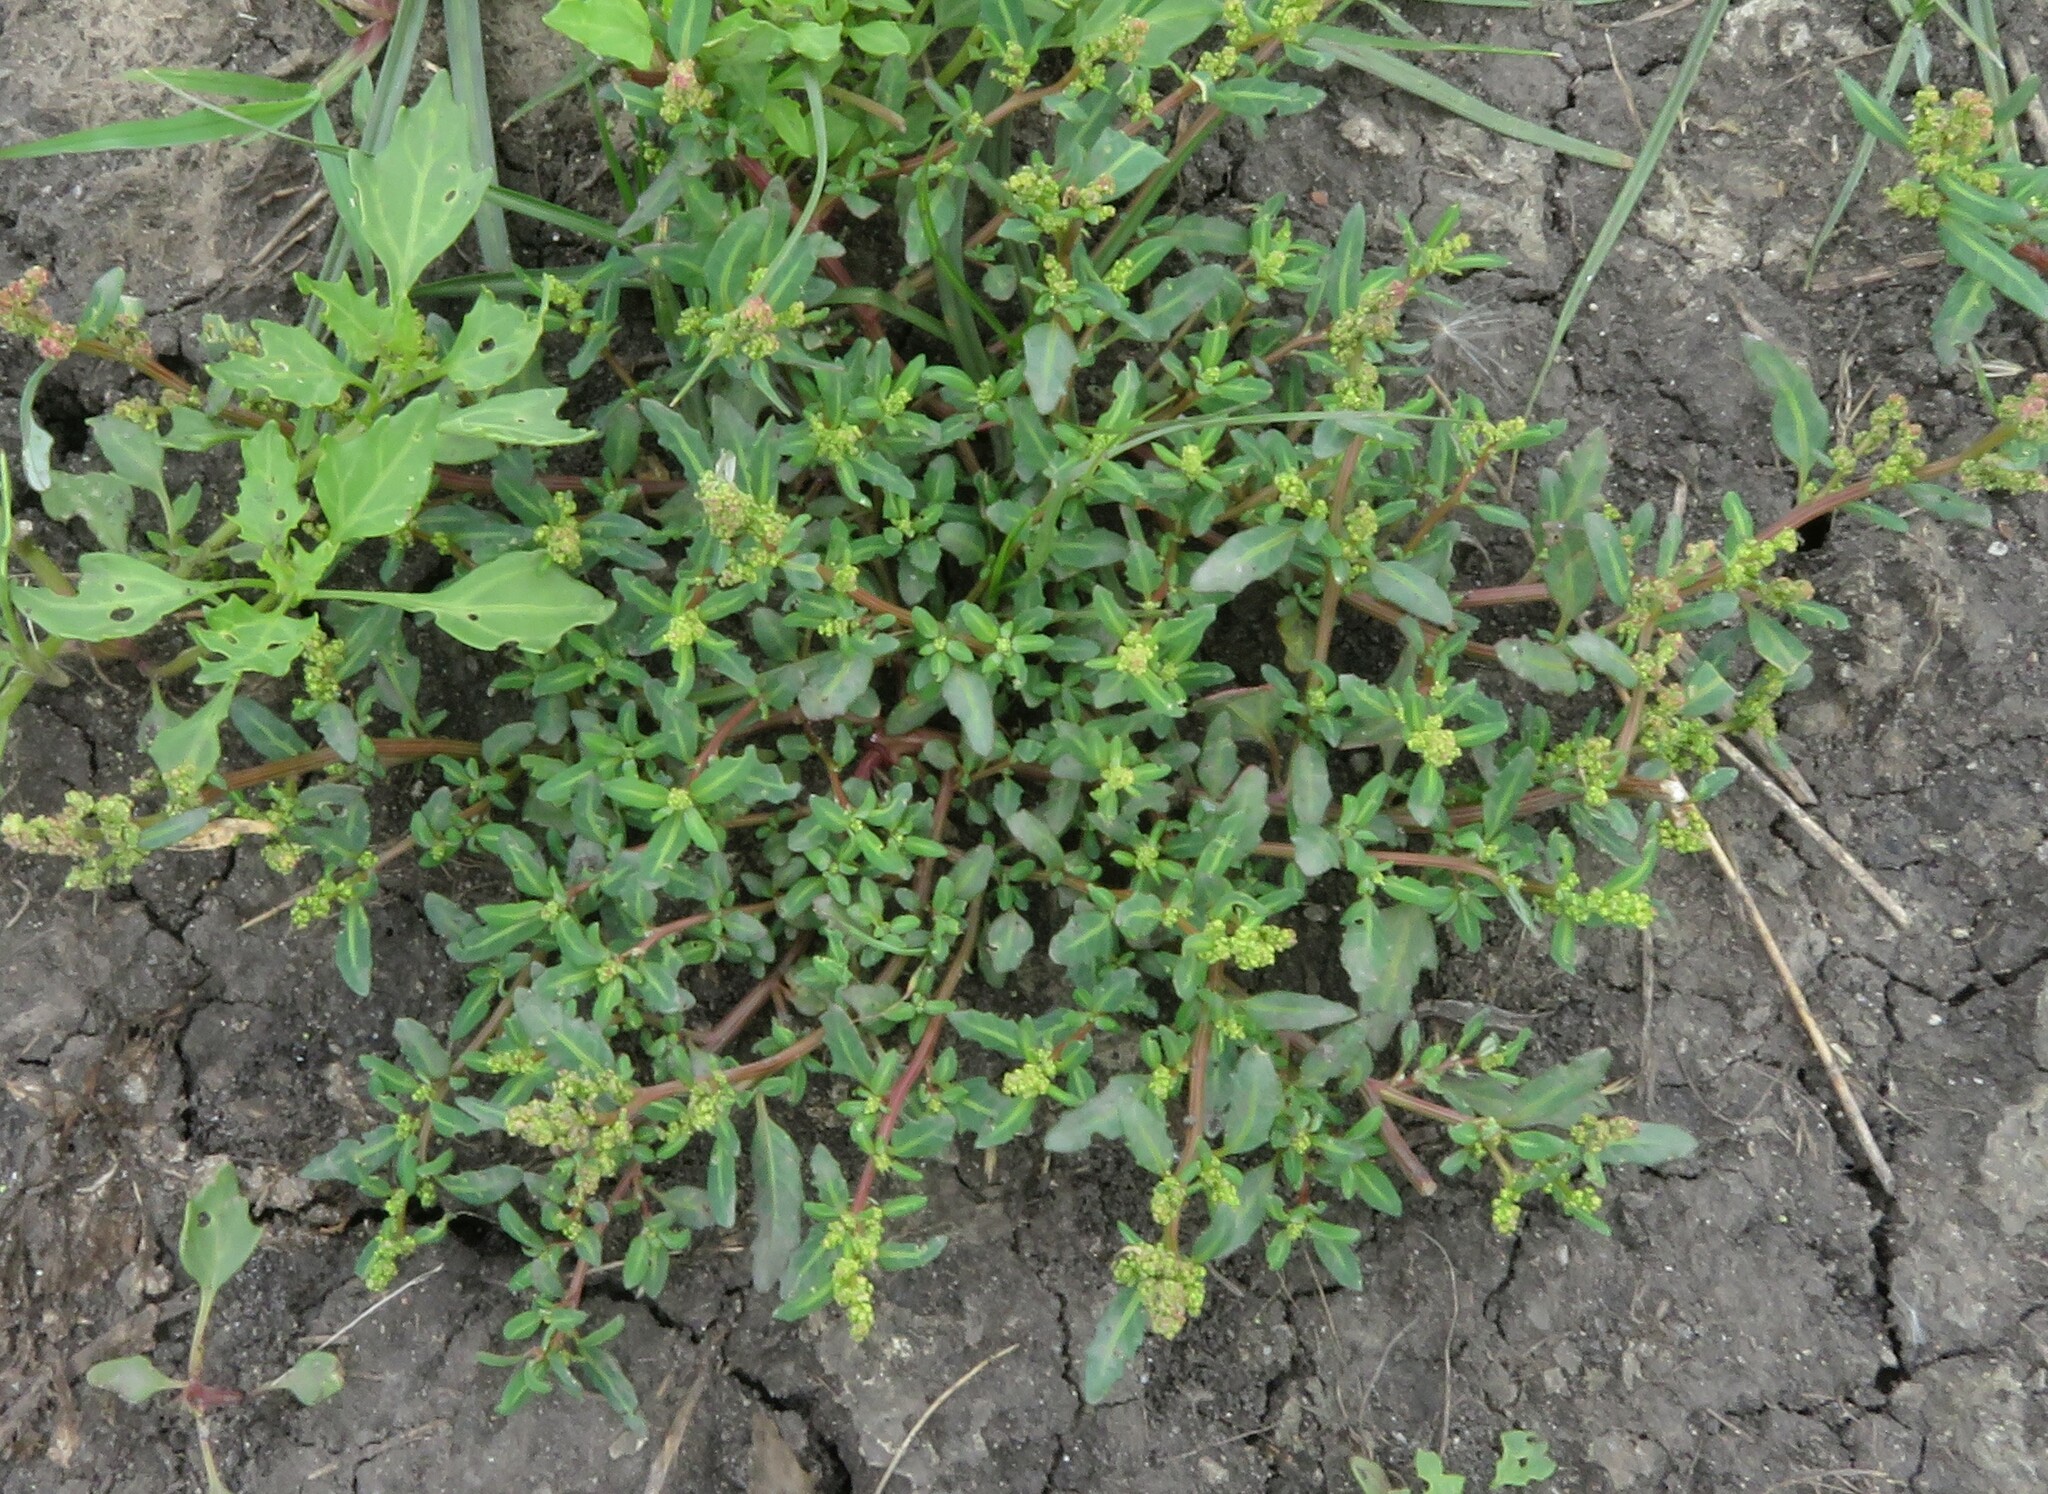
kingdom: Plantae
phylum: Tracheophyta
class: Magnoliopsida
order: Caryophyllales
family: Amaranthaceae
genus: Oxybasis
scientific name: Oxybasis glauca
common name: Glaucous goosefoot
